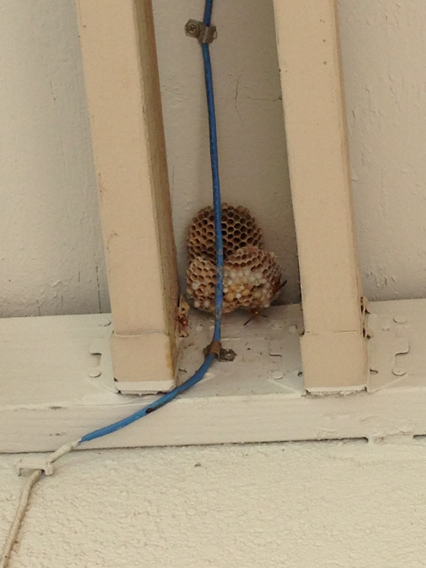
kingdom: Animalia
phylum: Arthropoda
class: Insecta
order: Hymenoptera
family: Eumenidae
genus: Polistes
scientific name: Polistes
